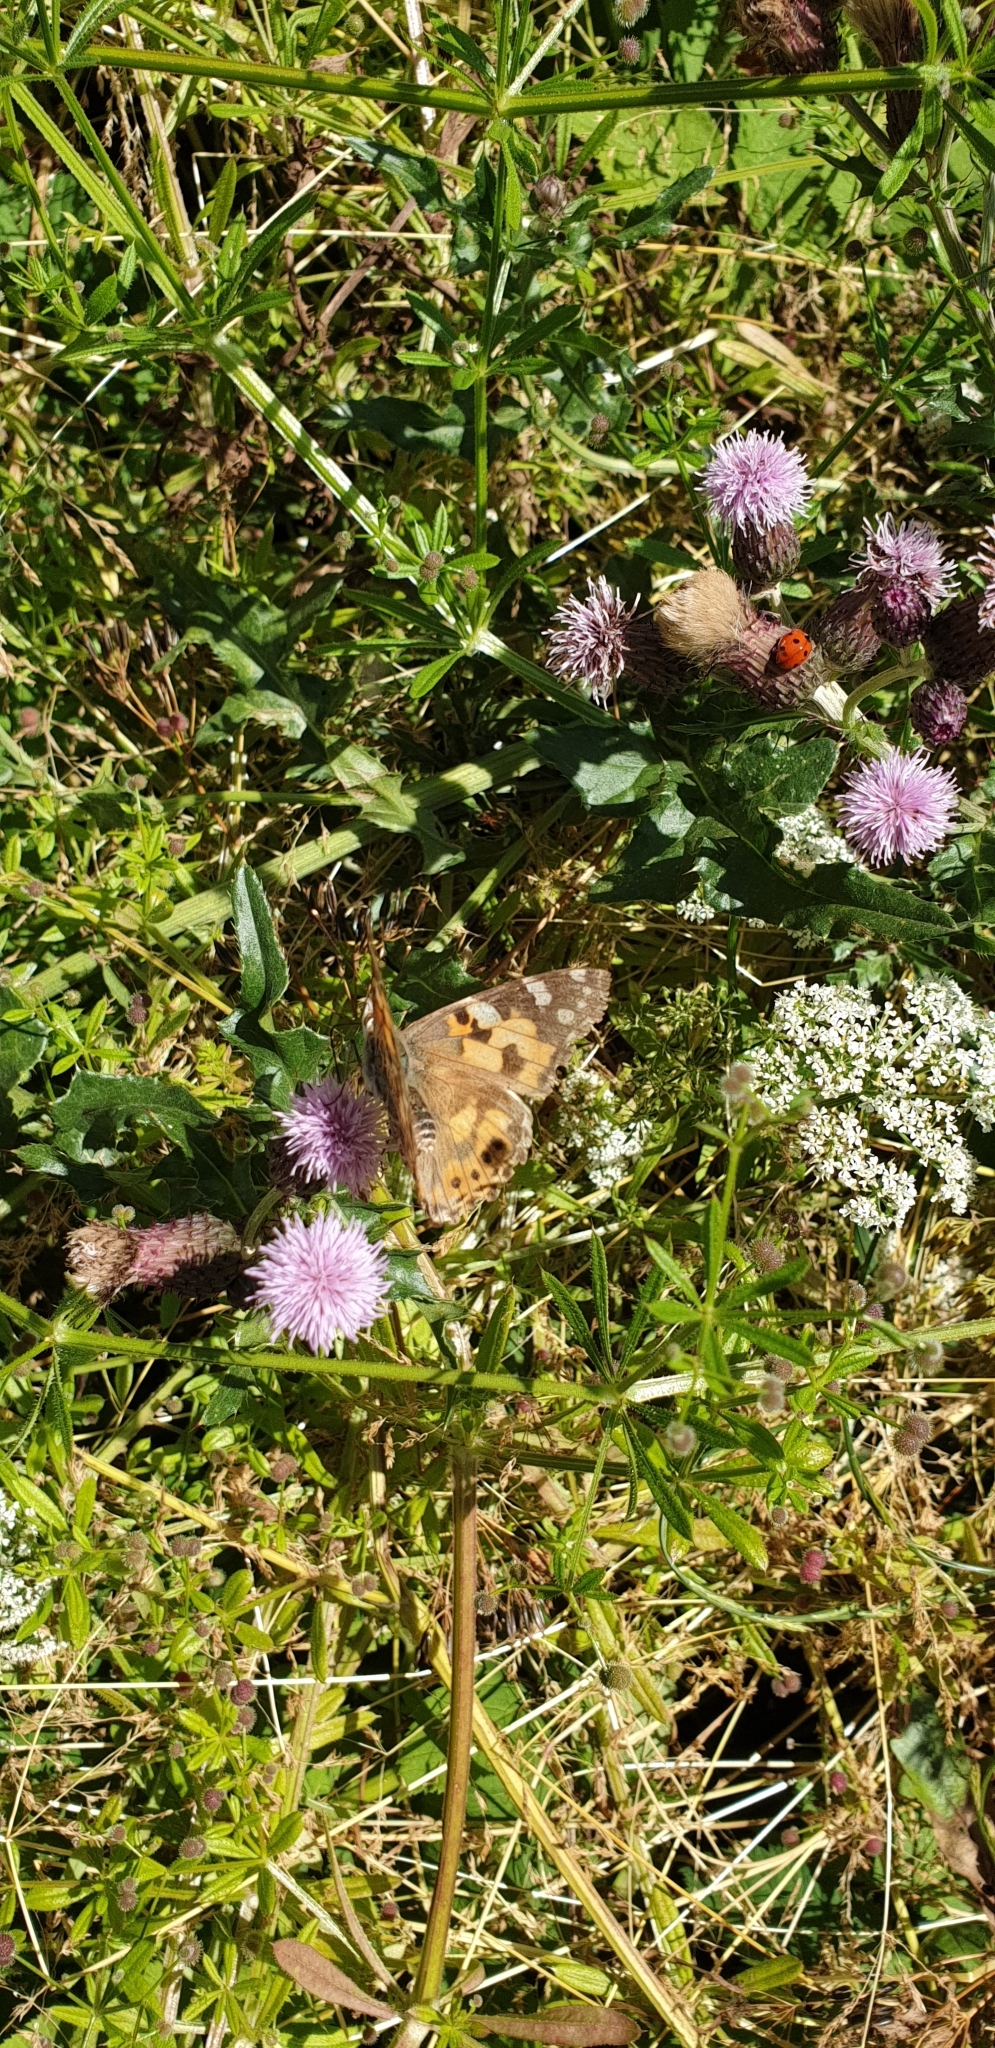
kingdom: Animalia
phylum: Arthropoda
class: Insecta
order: Lepidoptera
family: Nymphalidae
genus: Vanessa
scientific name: Vanessa cardui
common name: Painted lady
